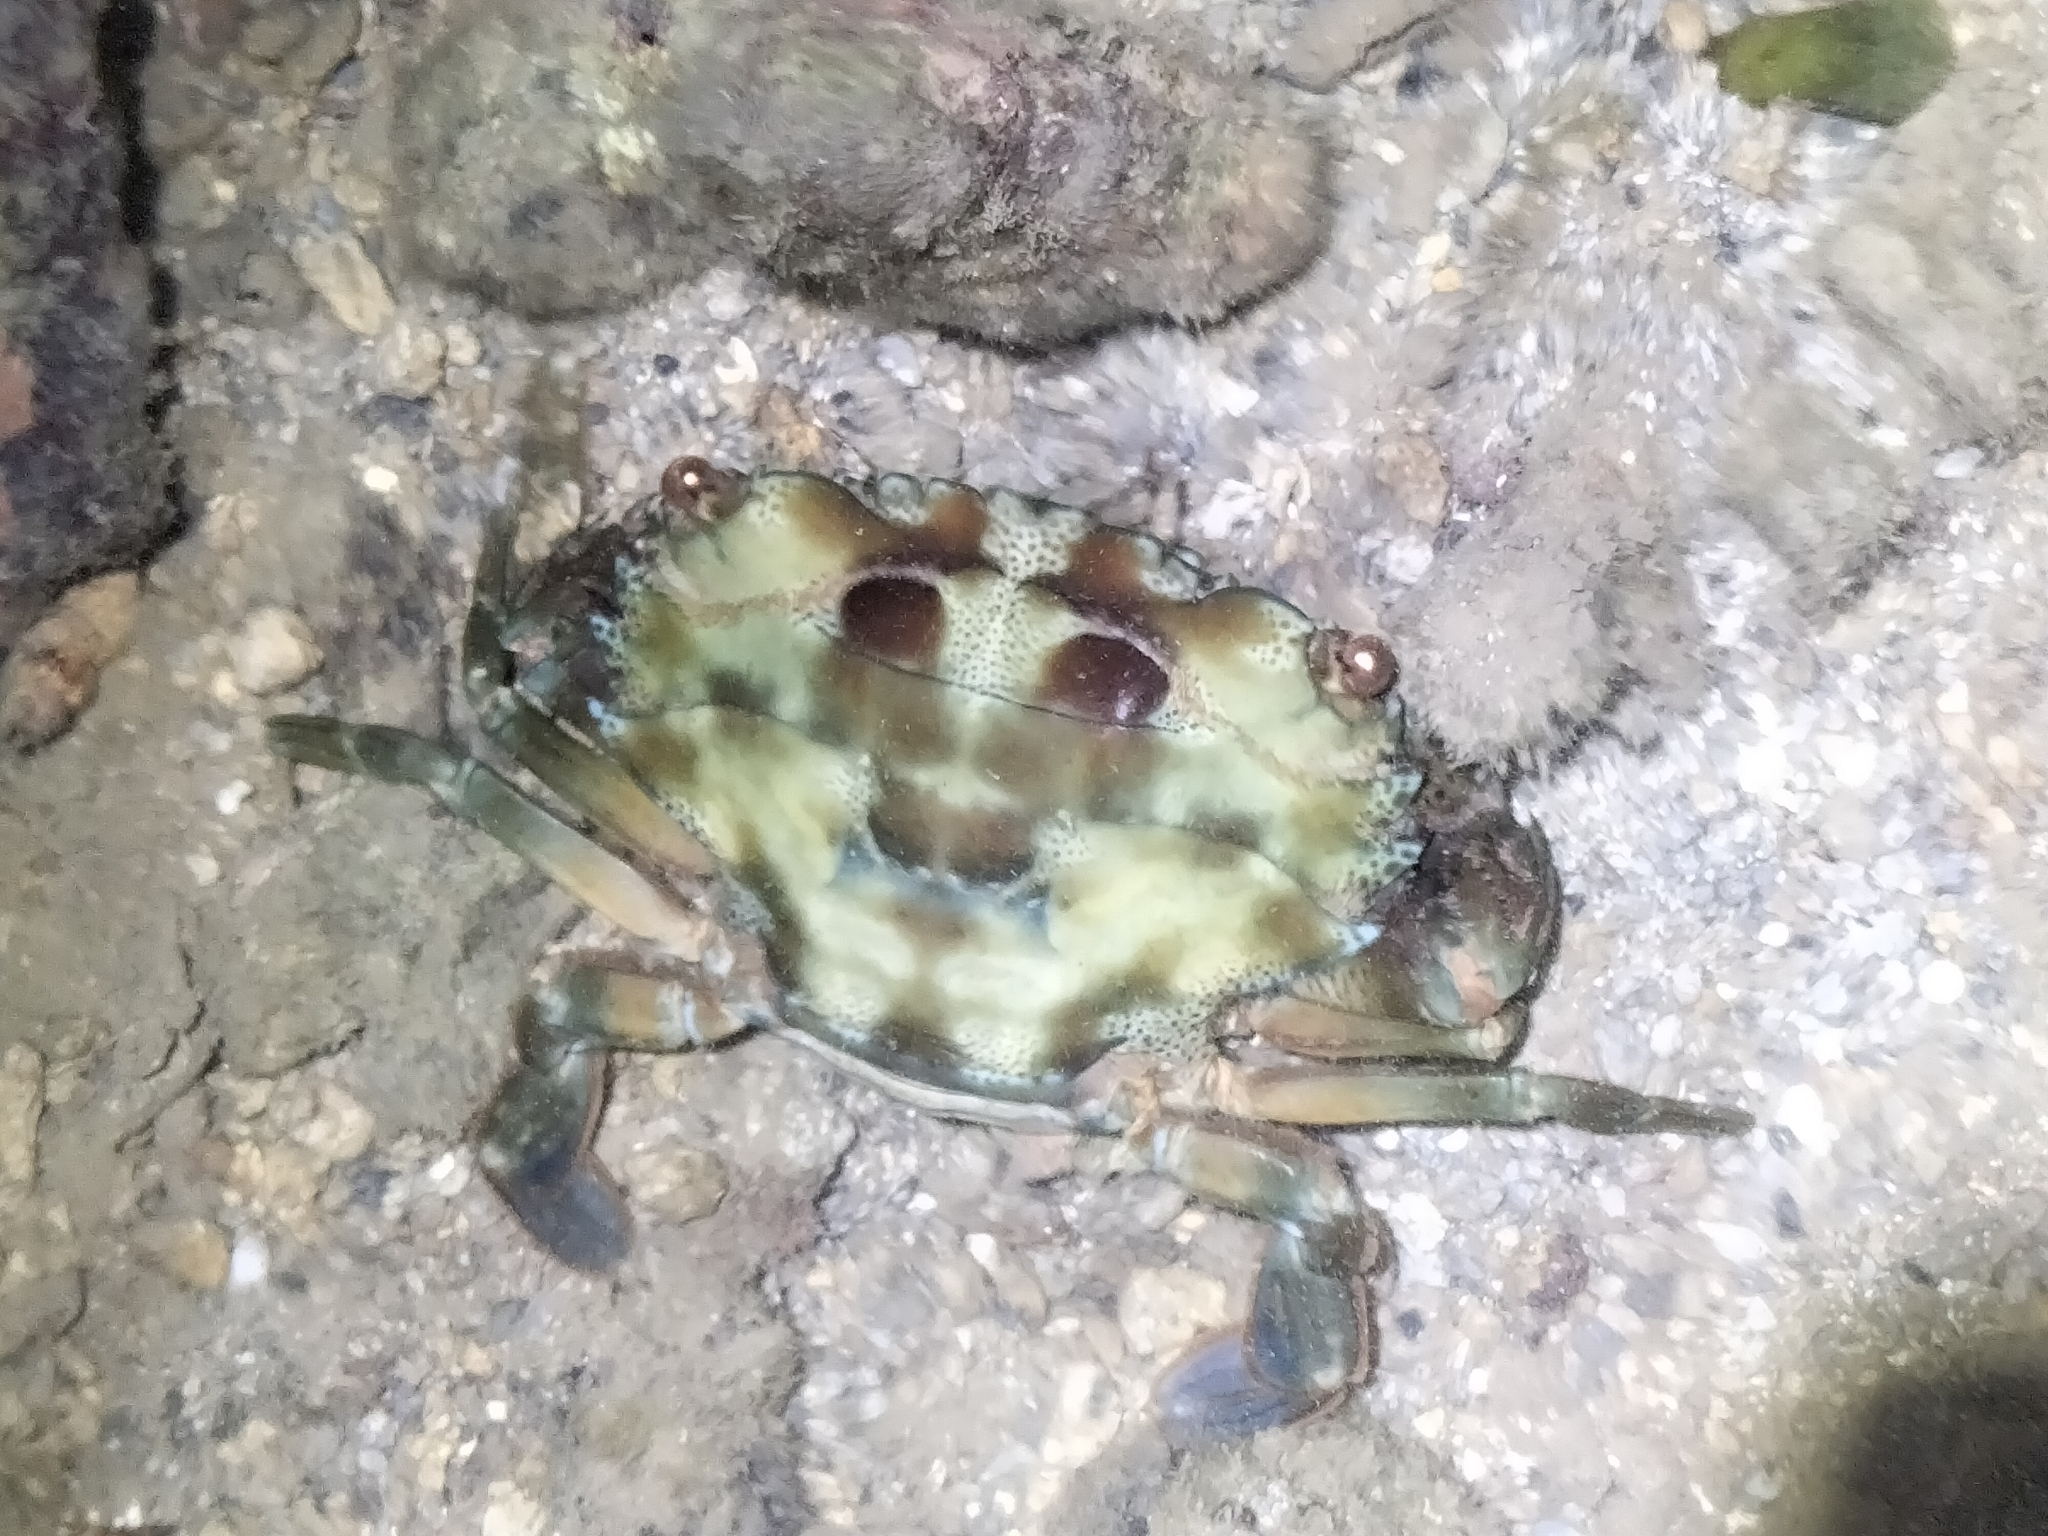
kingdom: Animalia
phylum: Arthropoda
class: Malacostraca
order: Decapoda
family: Portunidae
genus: Thalamita
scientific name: Thalamita prymna
